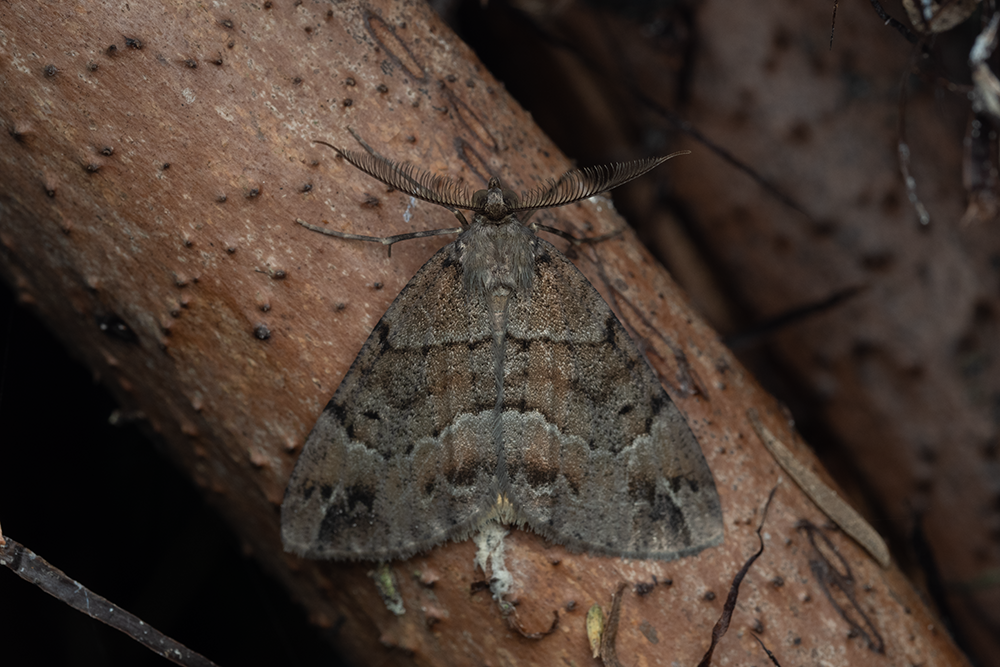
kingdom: Animalia
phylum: Arthropoda
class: Insecta
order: Lepidoptera
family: Geometridae
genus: Pseudocoremia
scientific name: Pseudocoremia suavis
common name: Common forest looper
